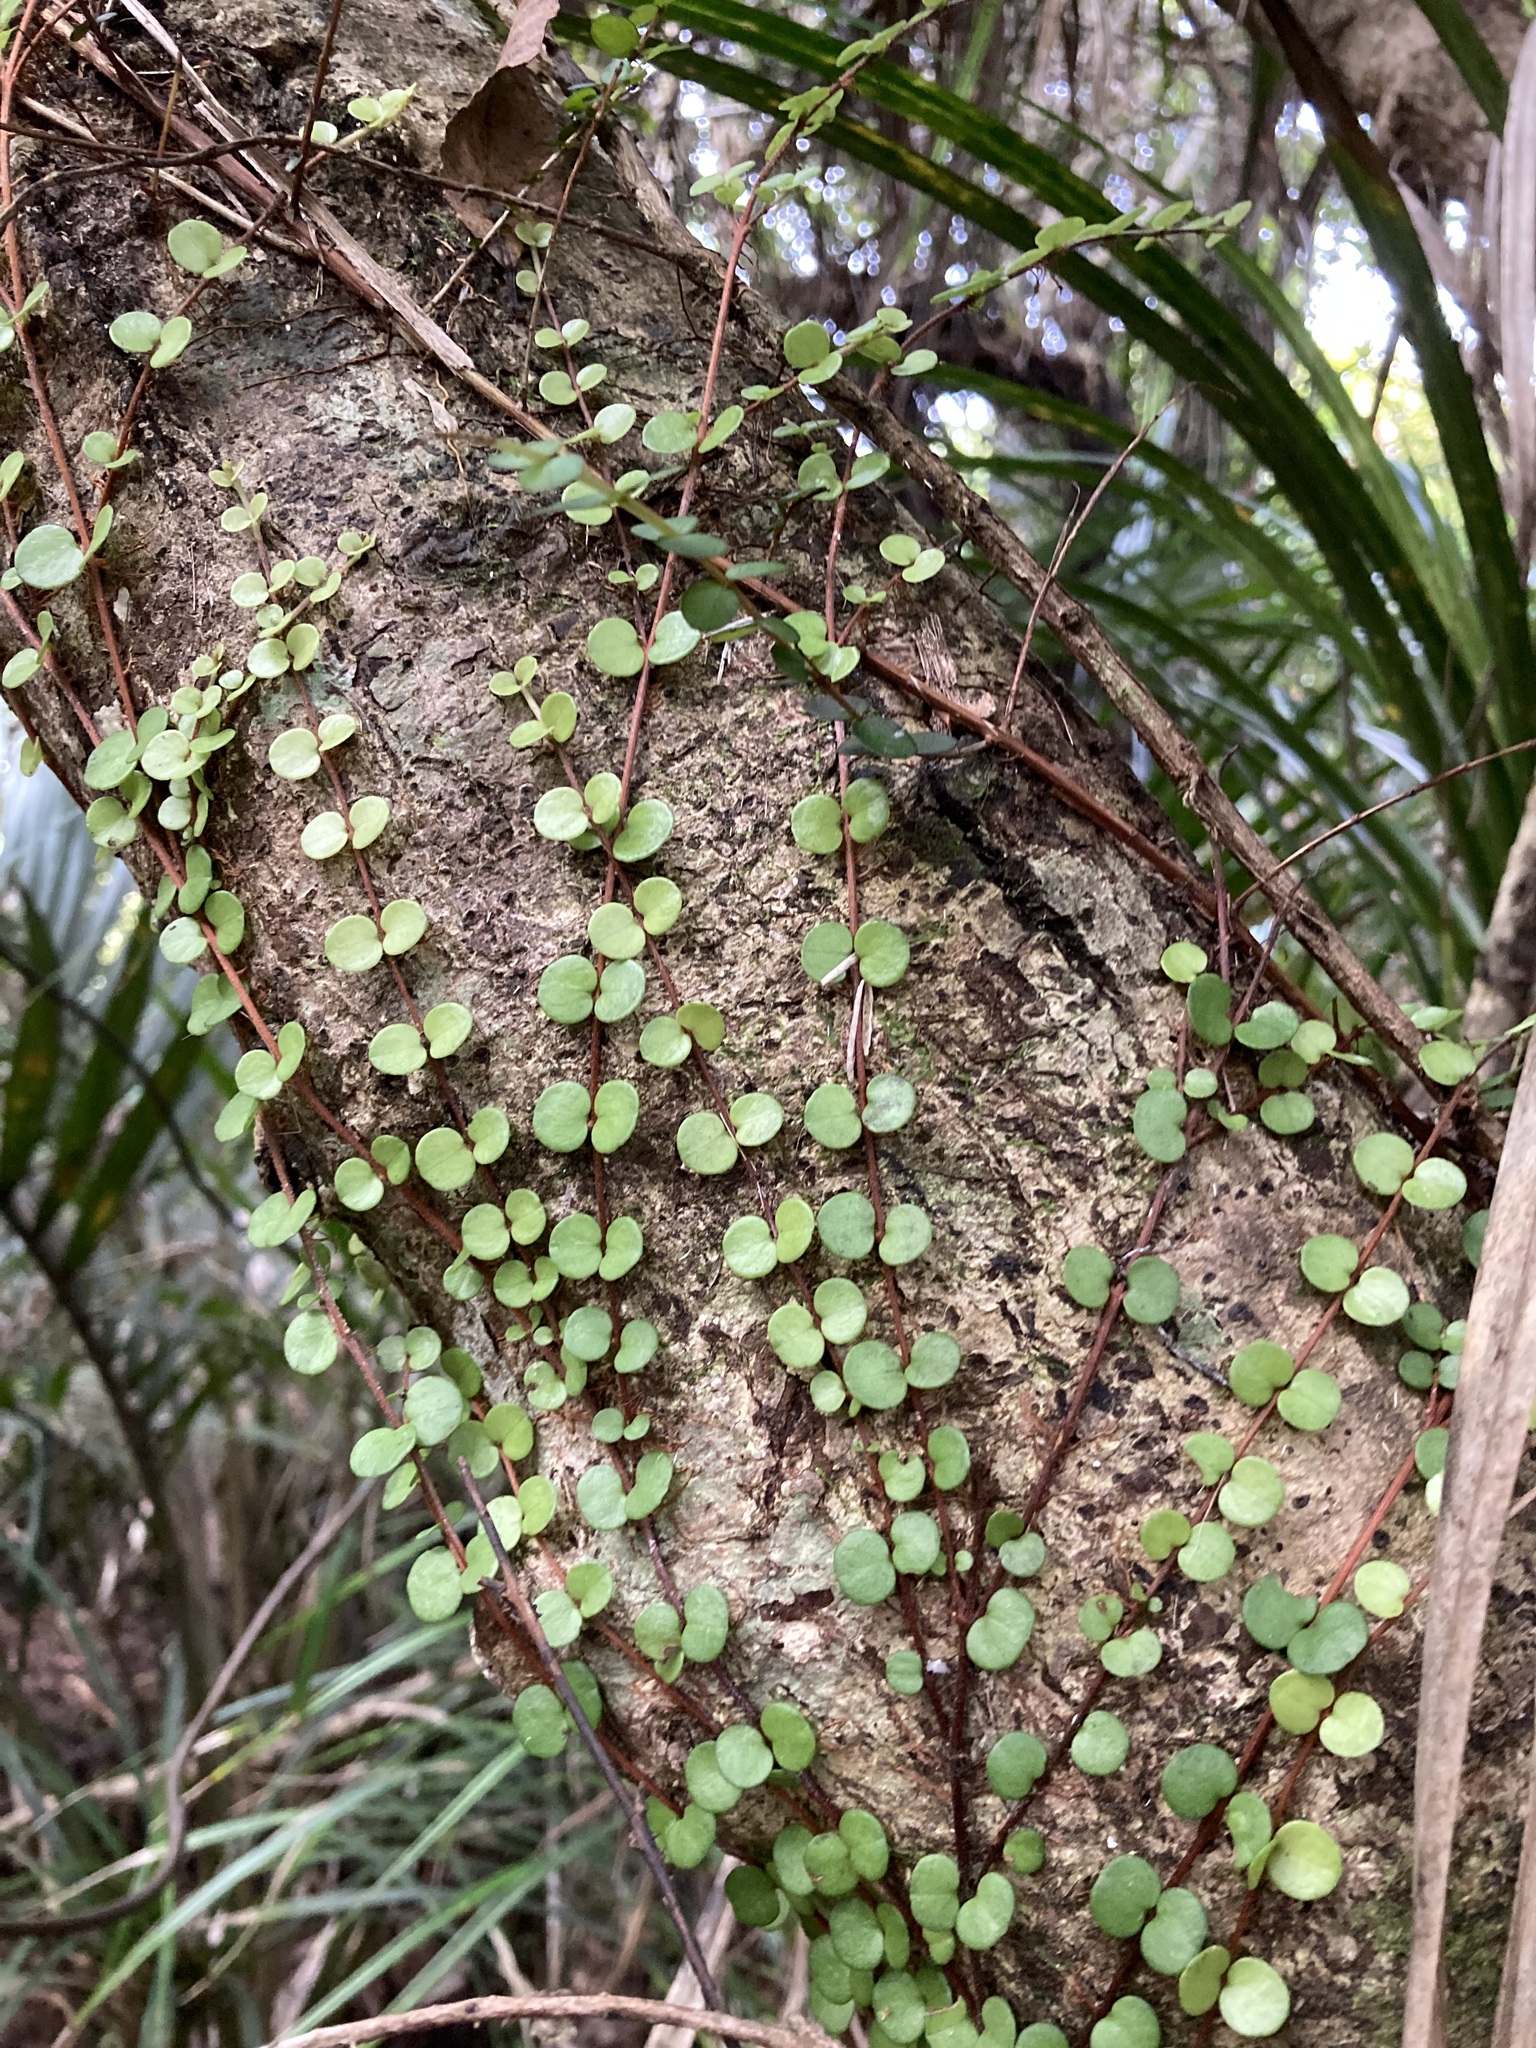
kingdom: Plantae
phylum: Tracheophyta
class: Magnoliopsida
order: Myrtales
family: Myrtaceae
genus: Metrosideros
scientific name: Metrosideros perforata
